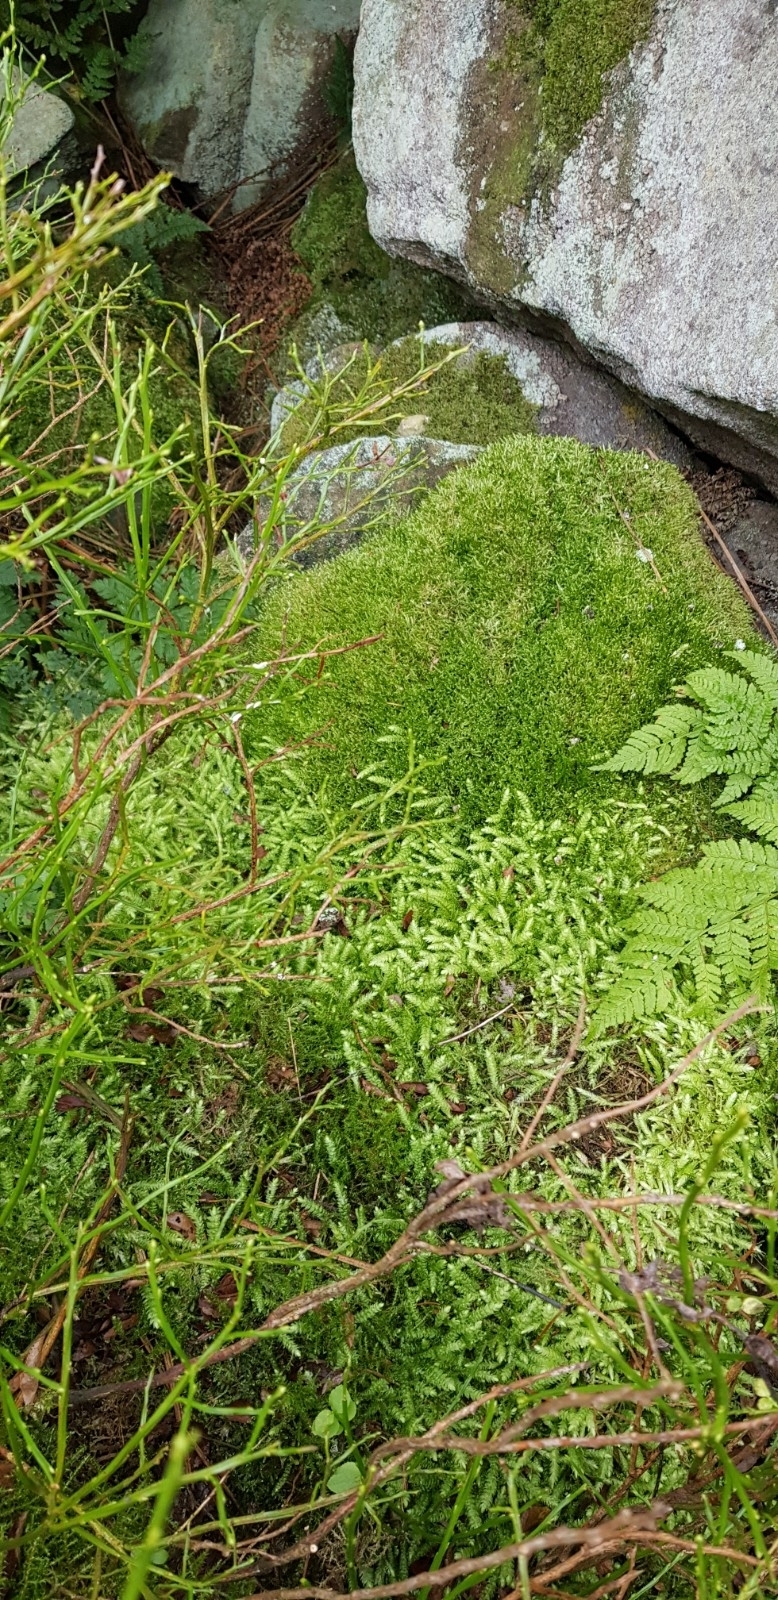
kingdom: Plantae
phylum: Bryophyta
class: Bryopsida
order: Hypnales
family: Plagiotheciaceae
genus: Plagiothecium
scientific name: Plagiothecium undulatum
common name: Waved silk-moss
